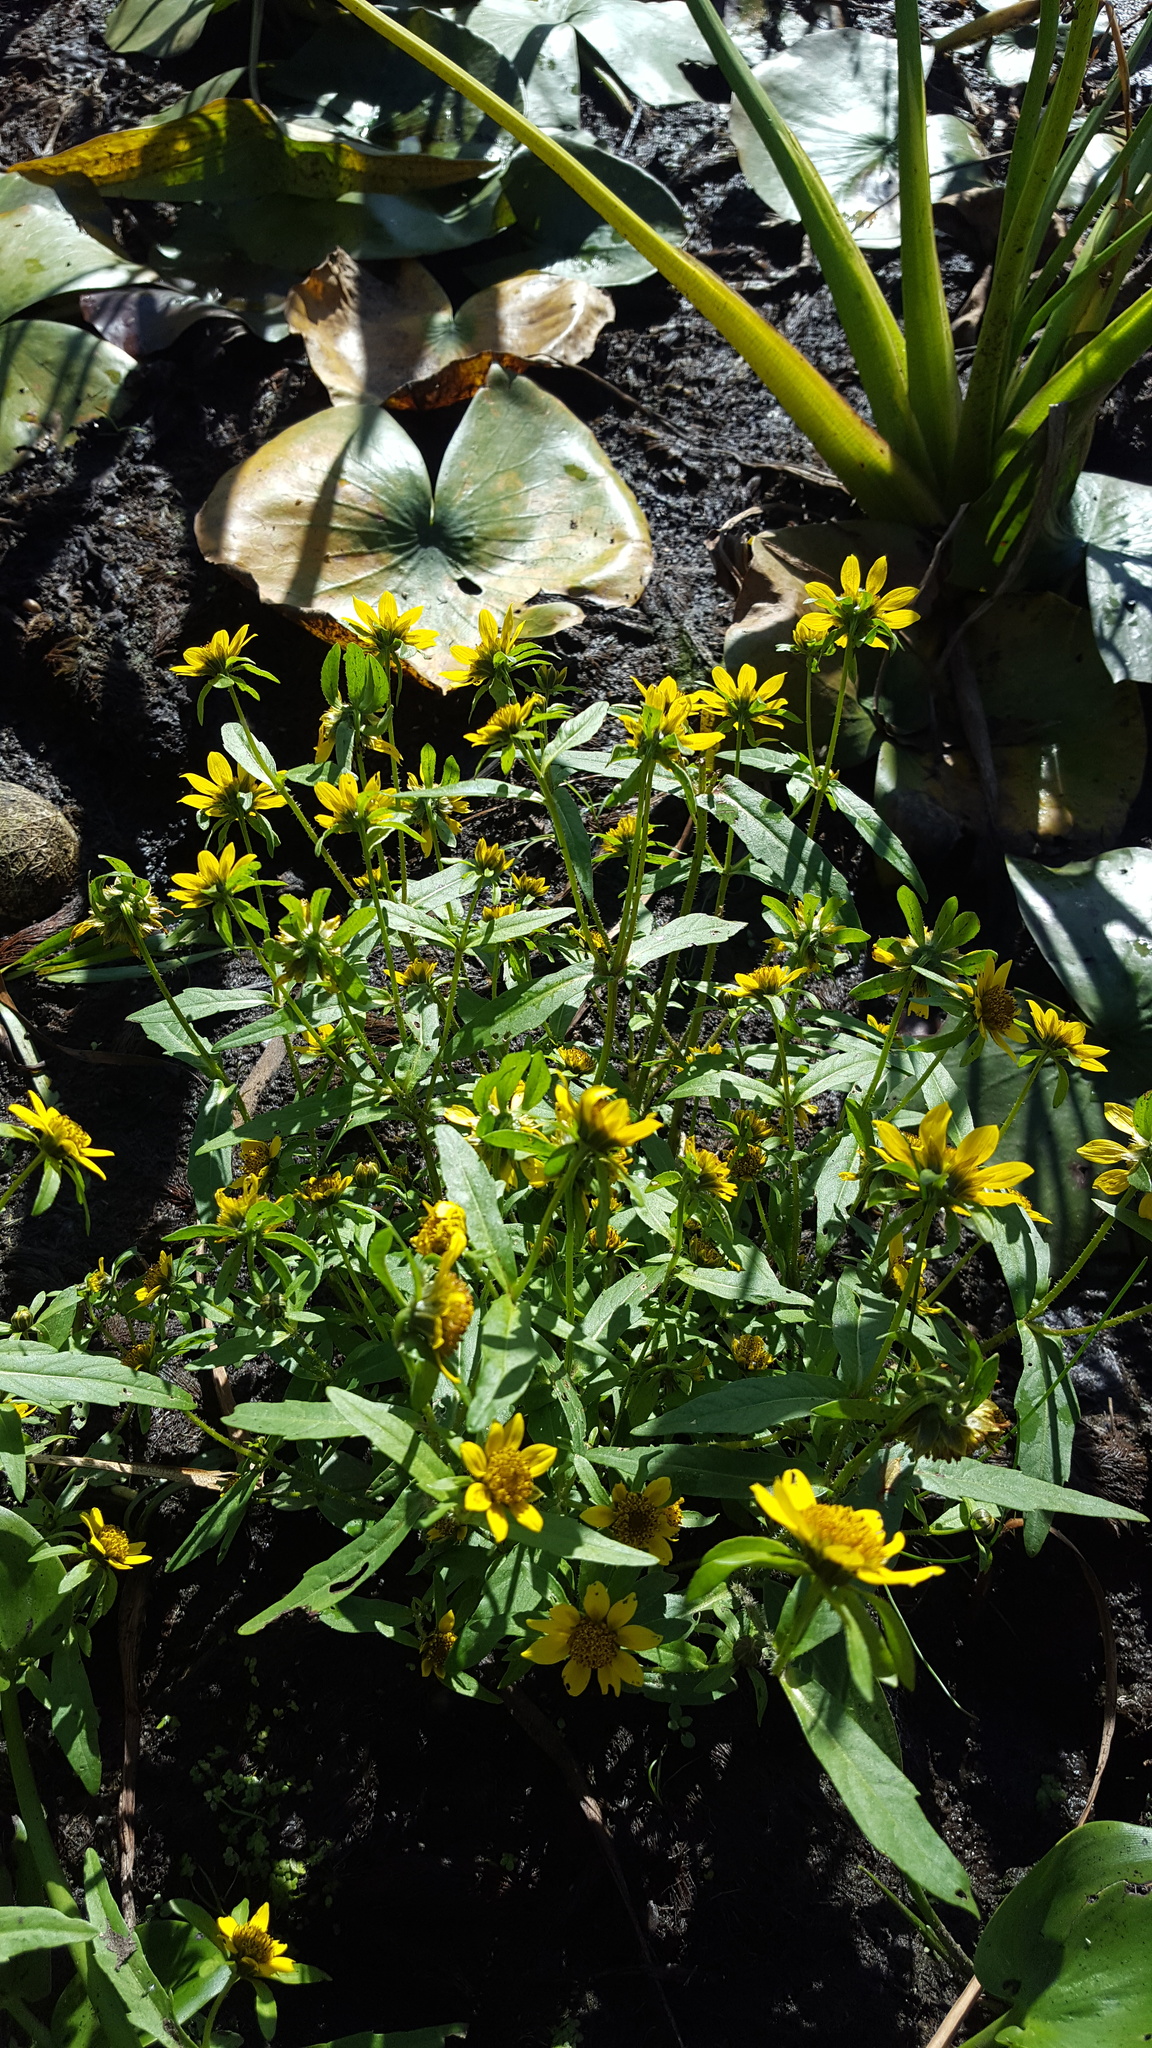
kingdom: Plantae
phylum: Tracheophyta
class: Magnoliopsida
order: Asterales
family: Asteraceae
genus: Bidens
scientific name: Bidens cernua
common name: Nodding bur-marigold
